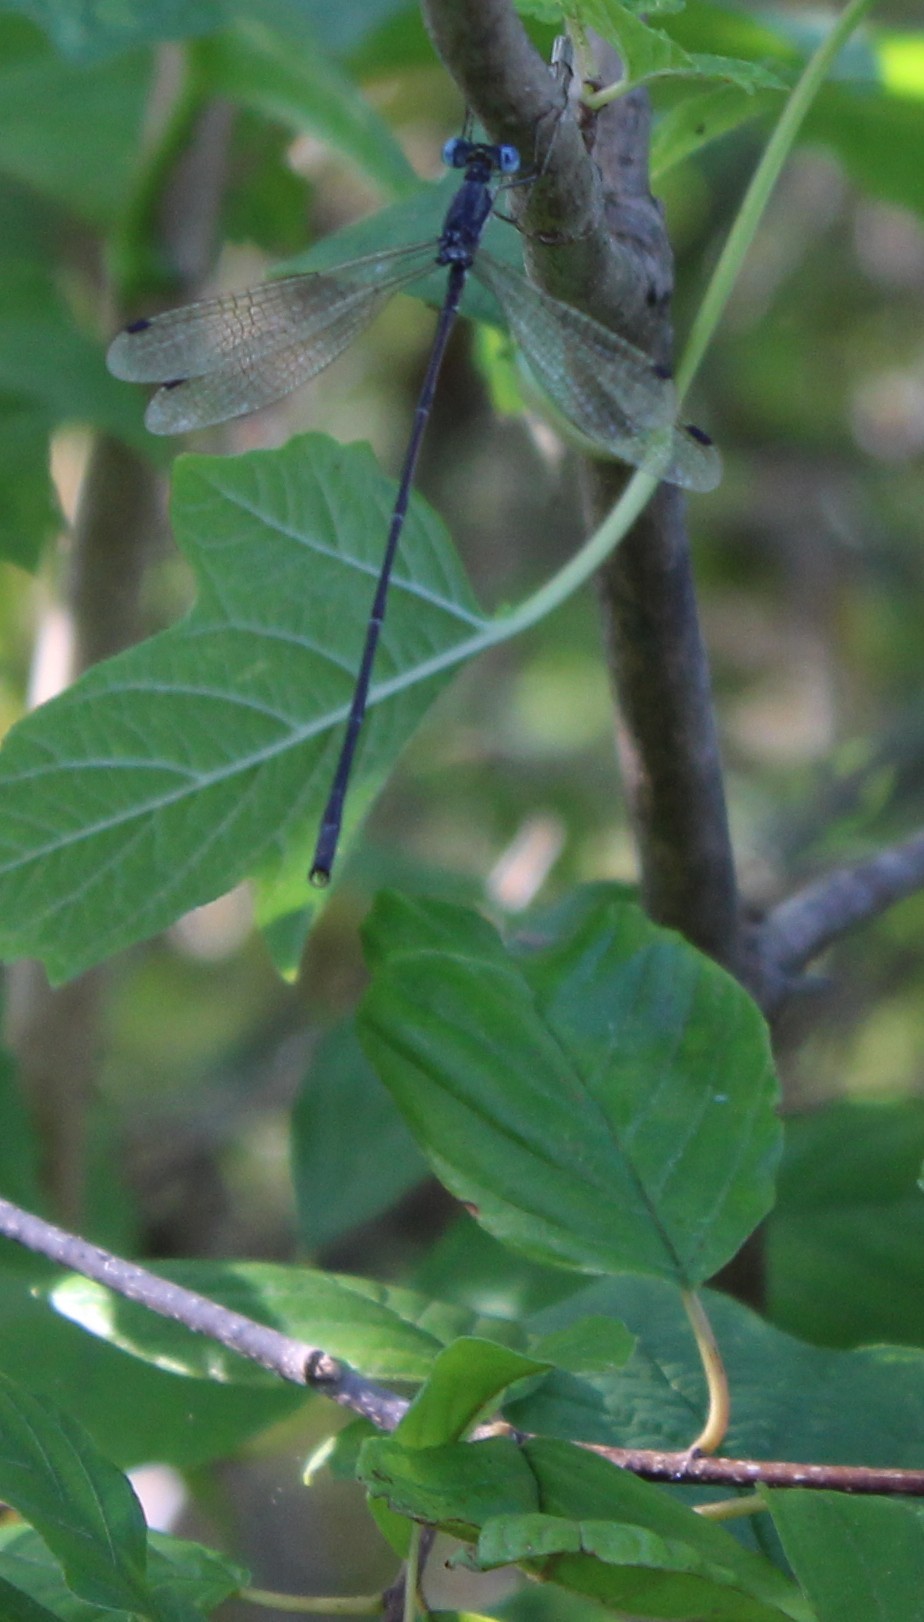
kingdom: Animalia
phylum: Arthropoda
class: Insecta
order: Odonata
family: Lestidae
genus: Lestes
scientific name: Lestes rectangularis
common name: Slender spreadwing
